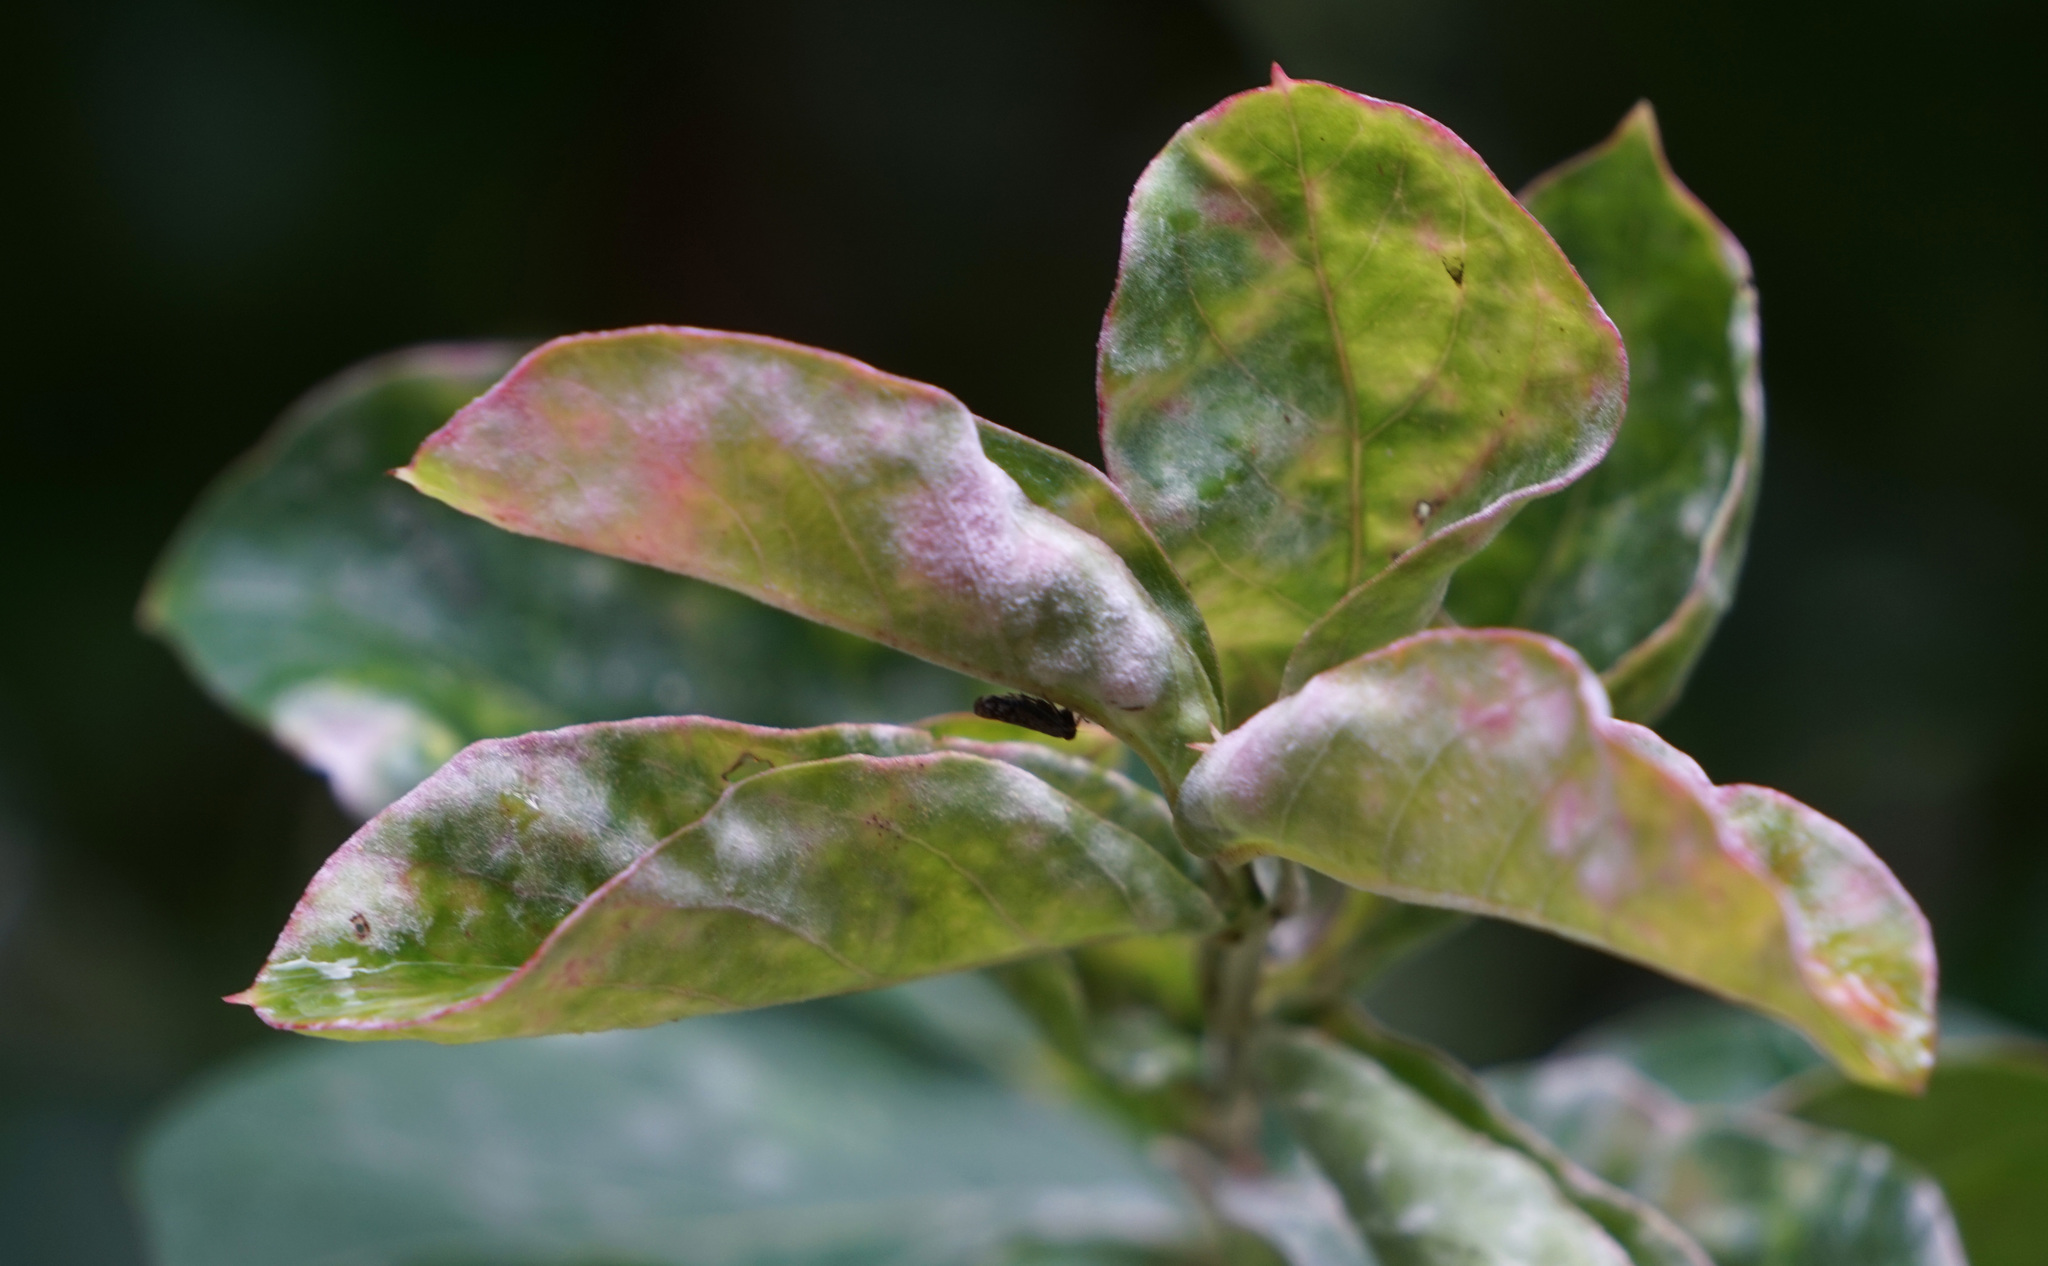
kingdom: Animalia
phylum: Arthropoda
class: Insecta
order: Hemiptera
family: Cicadellidae
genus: Orientus
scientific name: Orientus ishidae
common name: Japanese leafhopper
